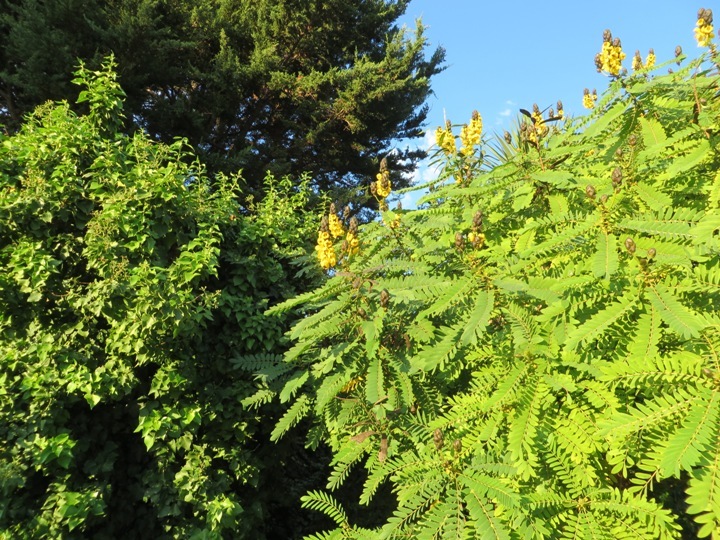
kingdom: Plantae
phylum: Tracheophyta
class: Magnoliopsida
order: Fabales
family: Fabaceae
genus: Senna
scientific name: Senna didymobotrya
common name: African senna
